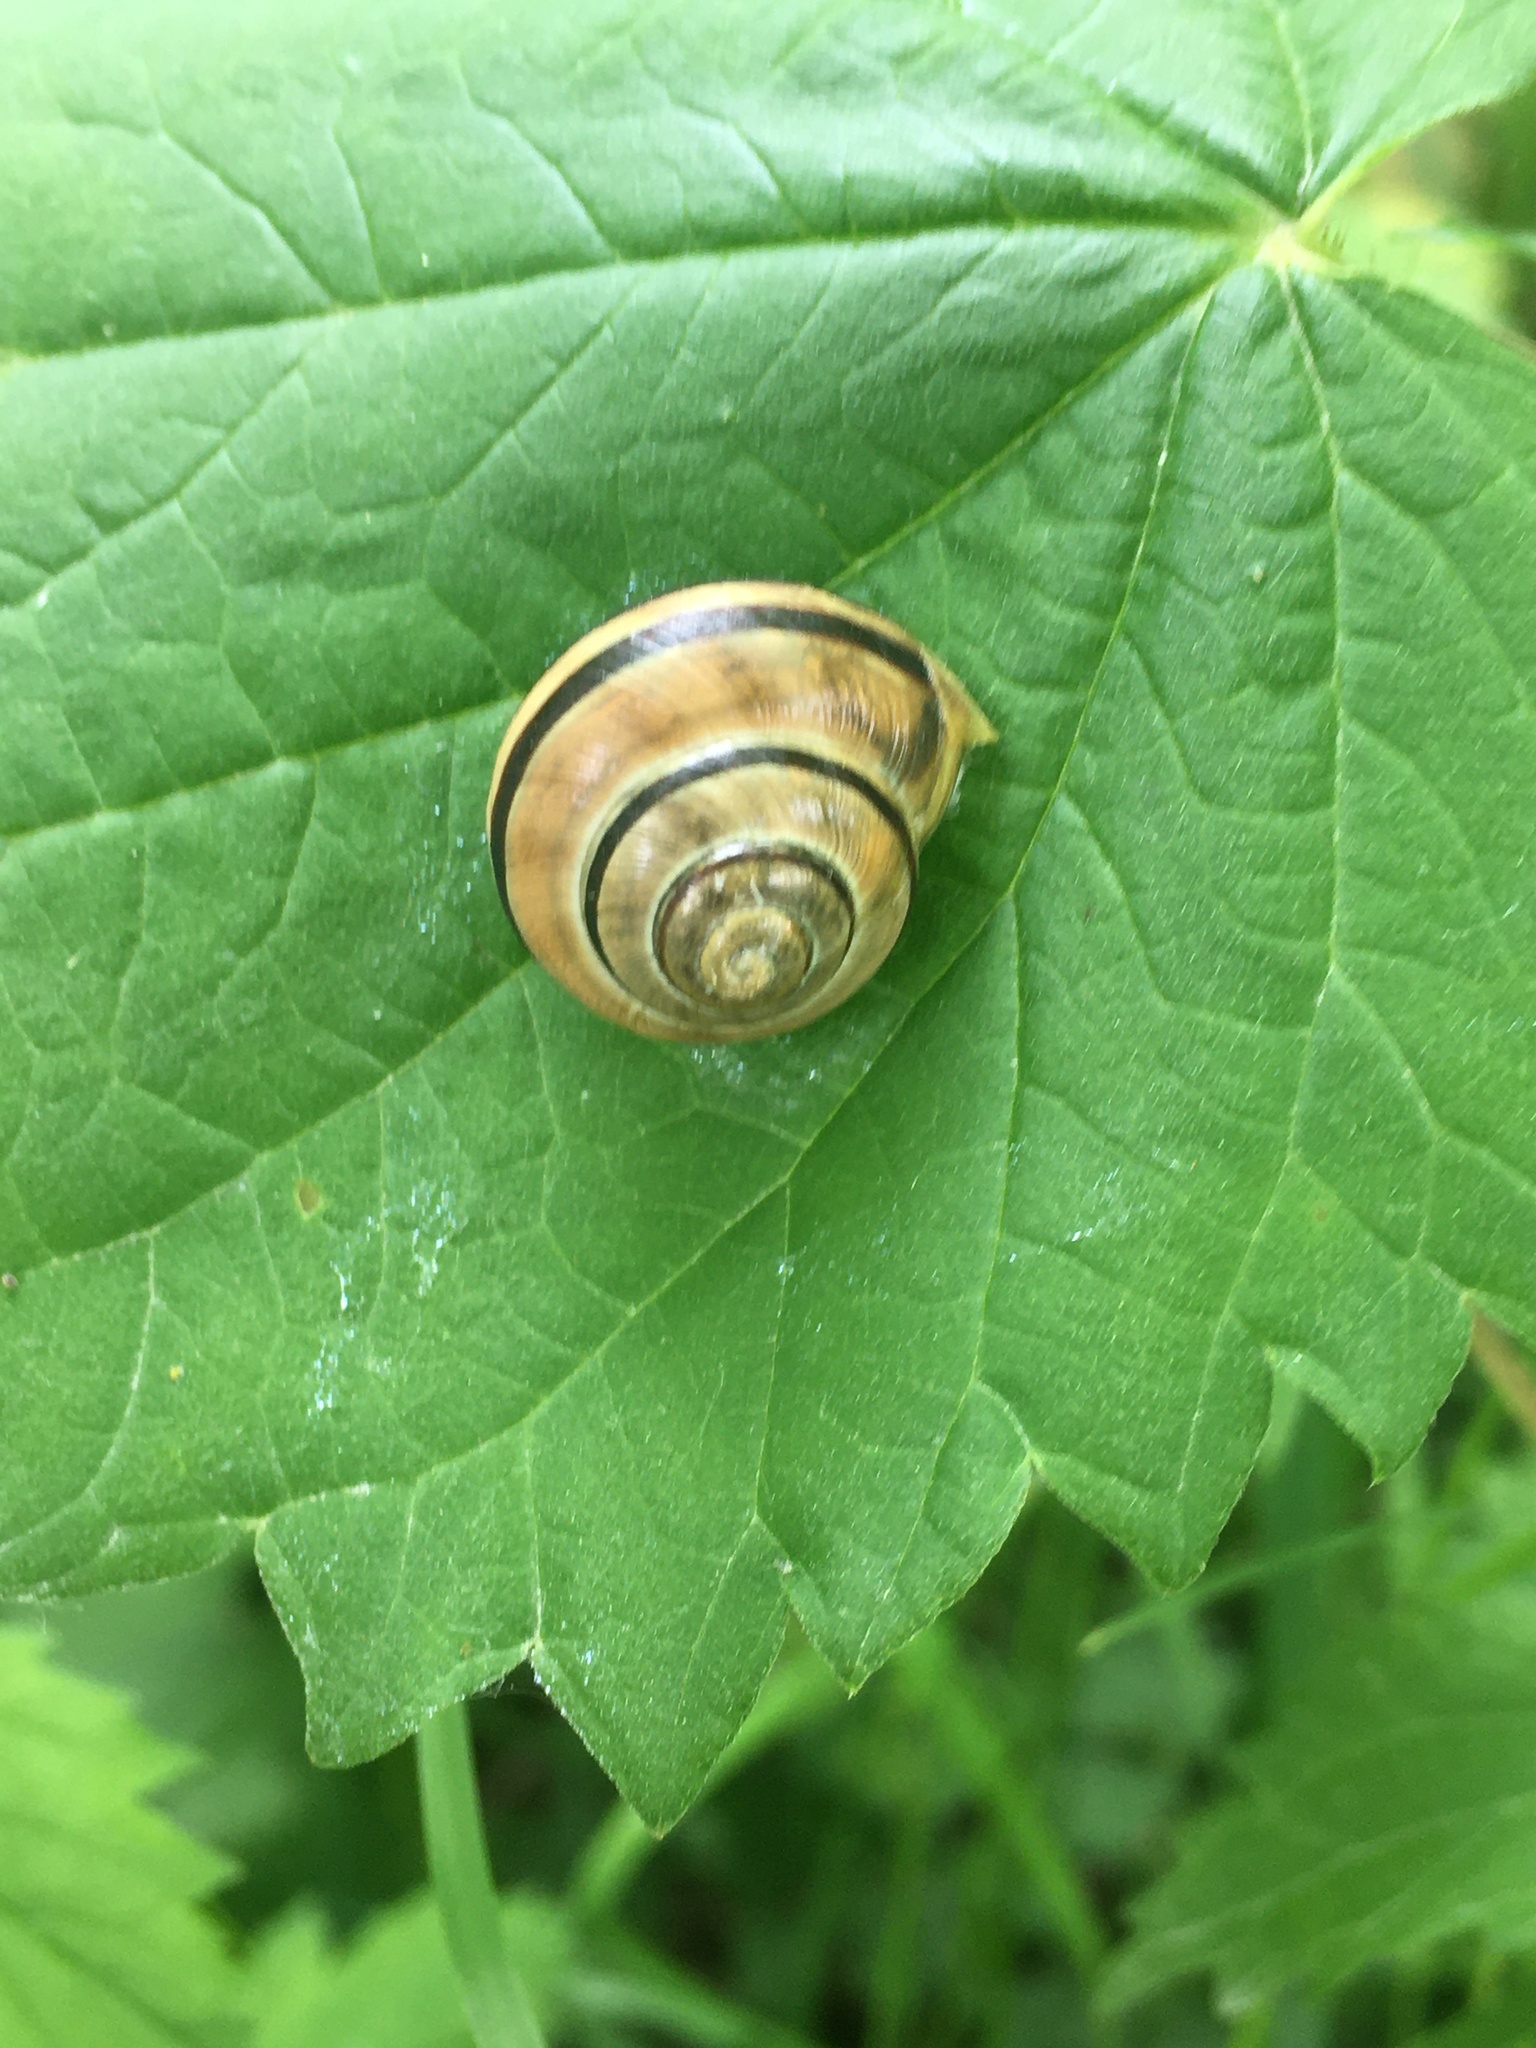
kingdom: Animalia
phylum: Mollusca
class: Gastropoda
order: Stylommatophora
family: Helicidae
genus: Cepaea
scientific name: Cepaea nemoralis
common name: Grovesnail
